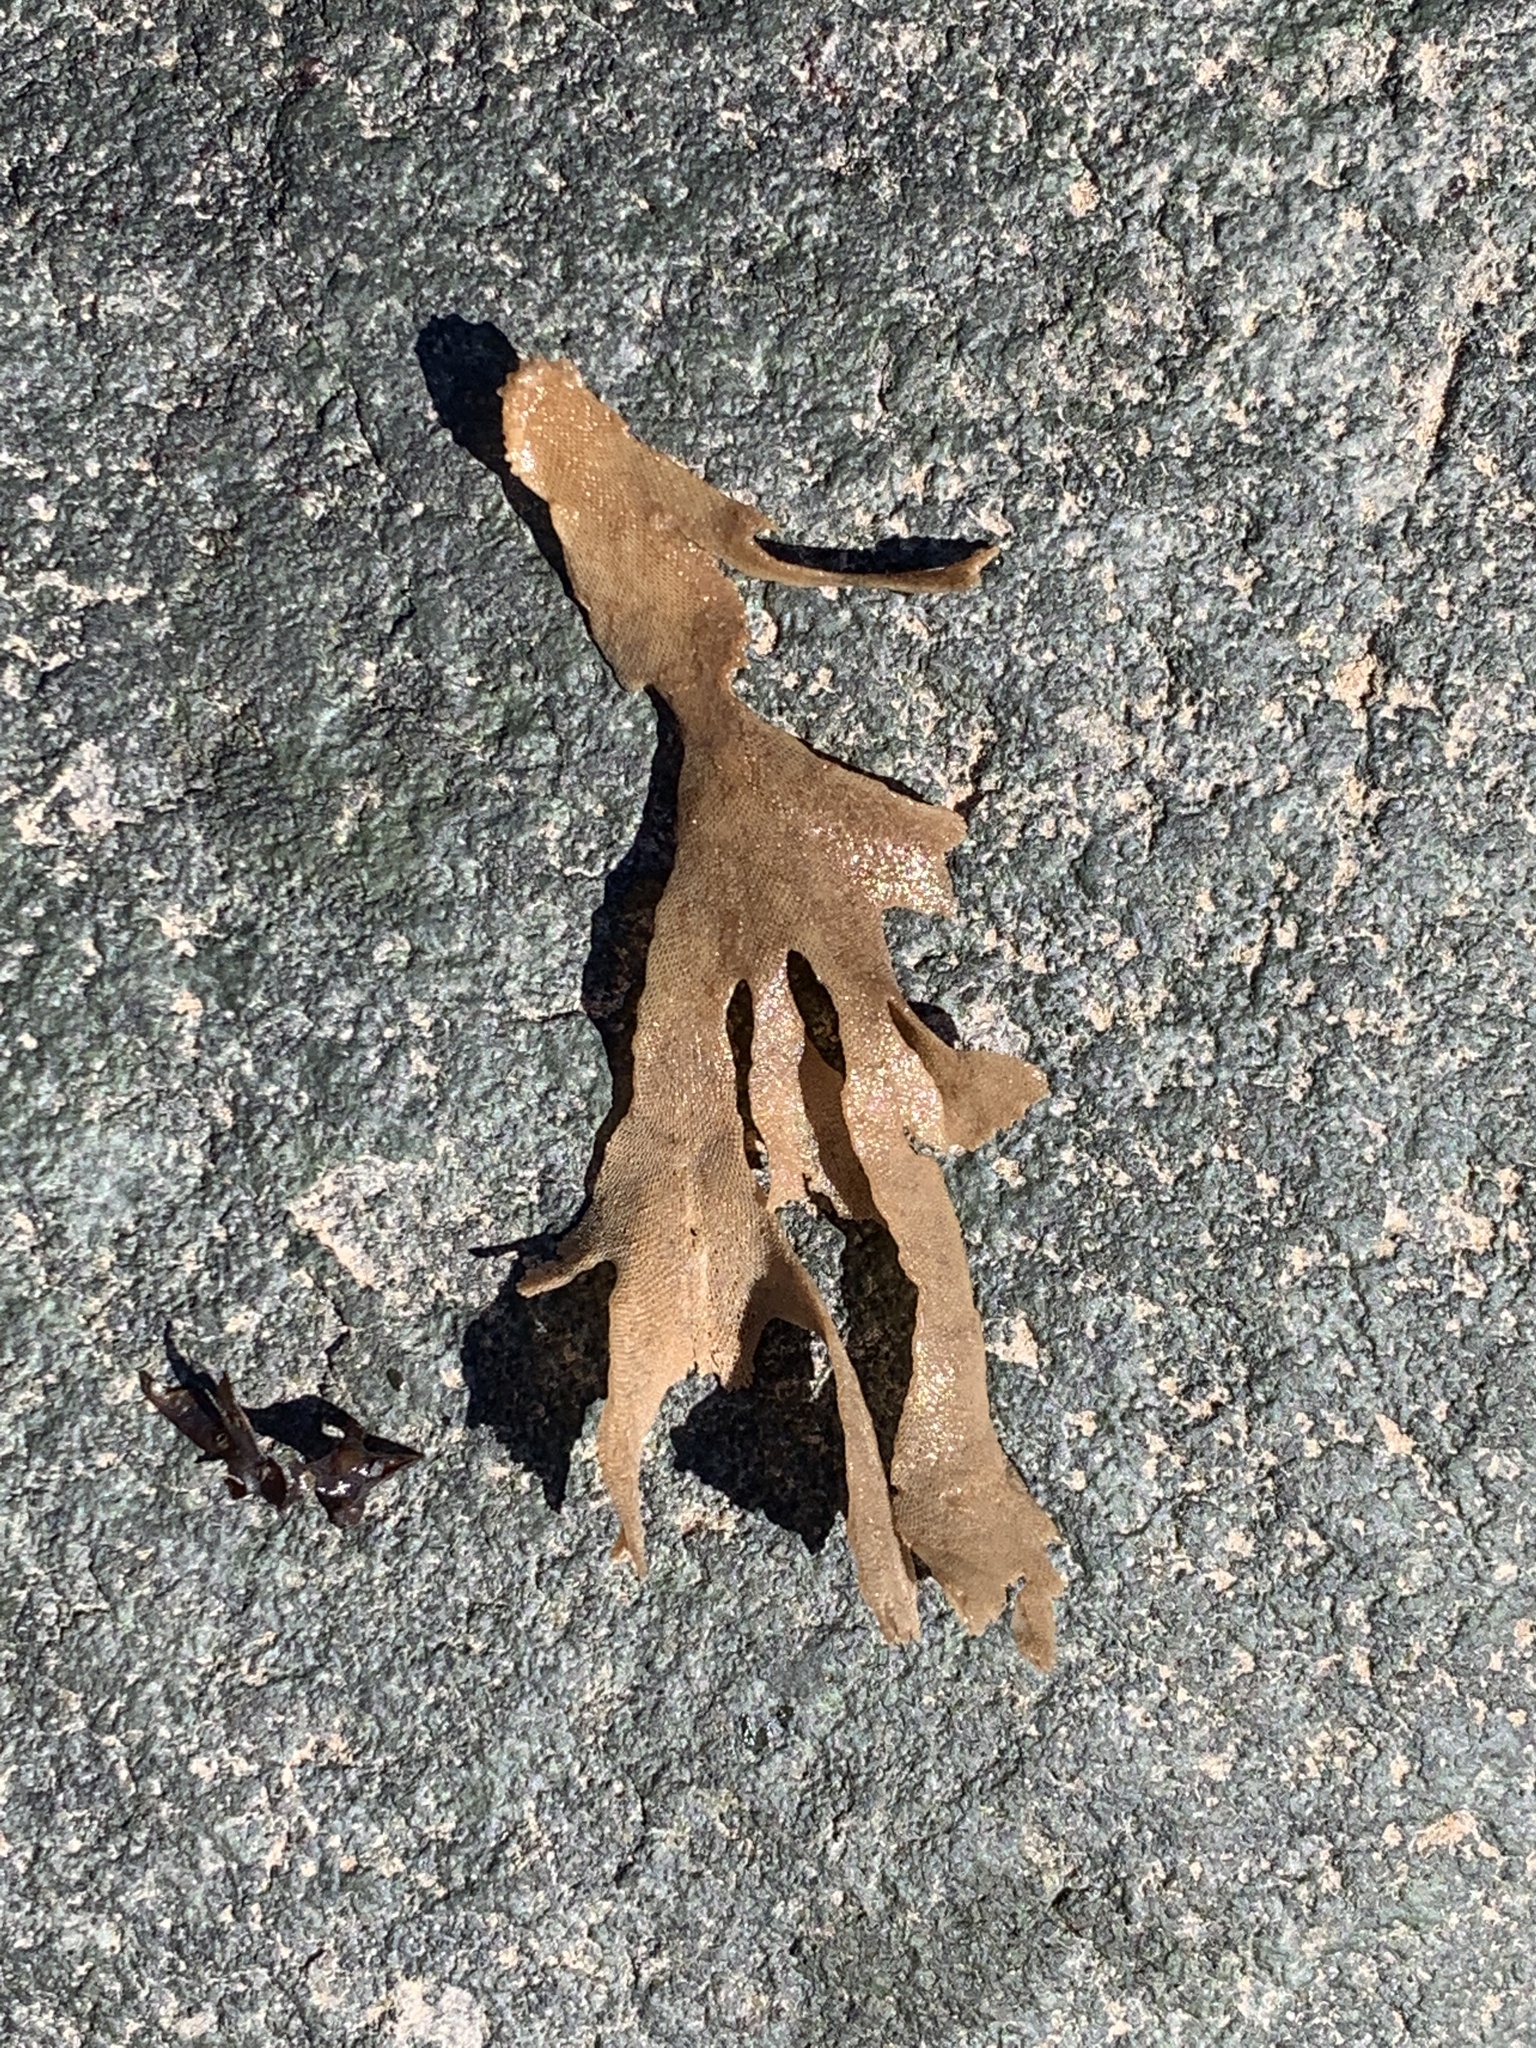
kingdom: Animalia
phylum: Bryozoa
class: Gymnolaemata
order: Cheilostomatida
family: Flustridae
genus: Flustra
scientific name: Flustra foliacea
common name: Hornwrack
